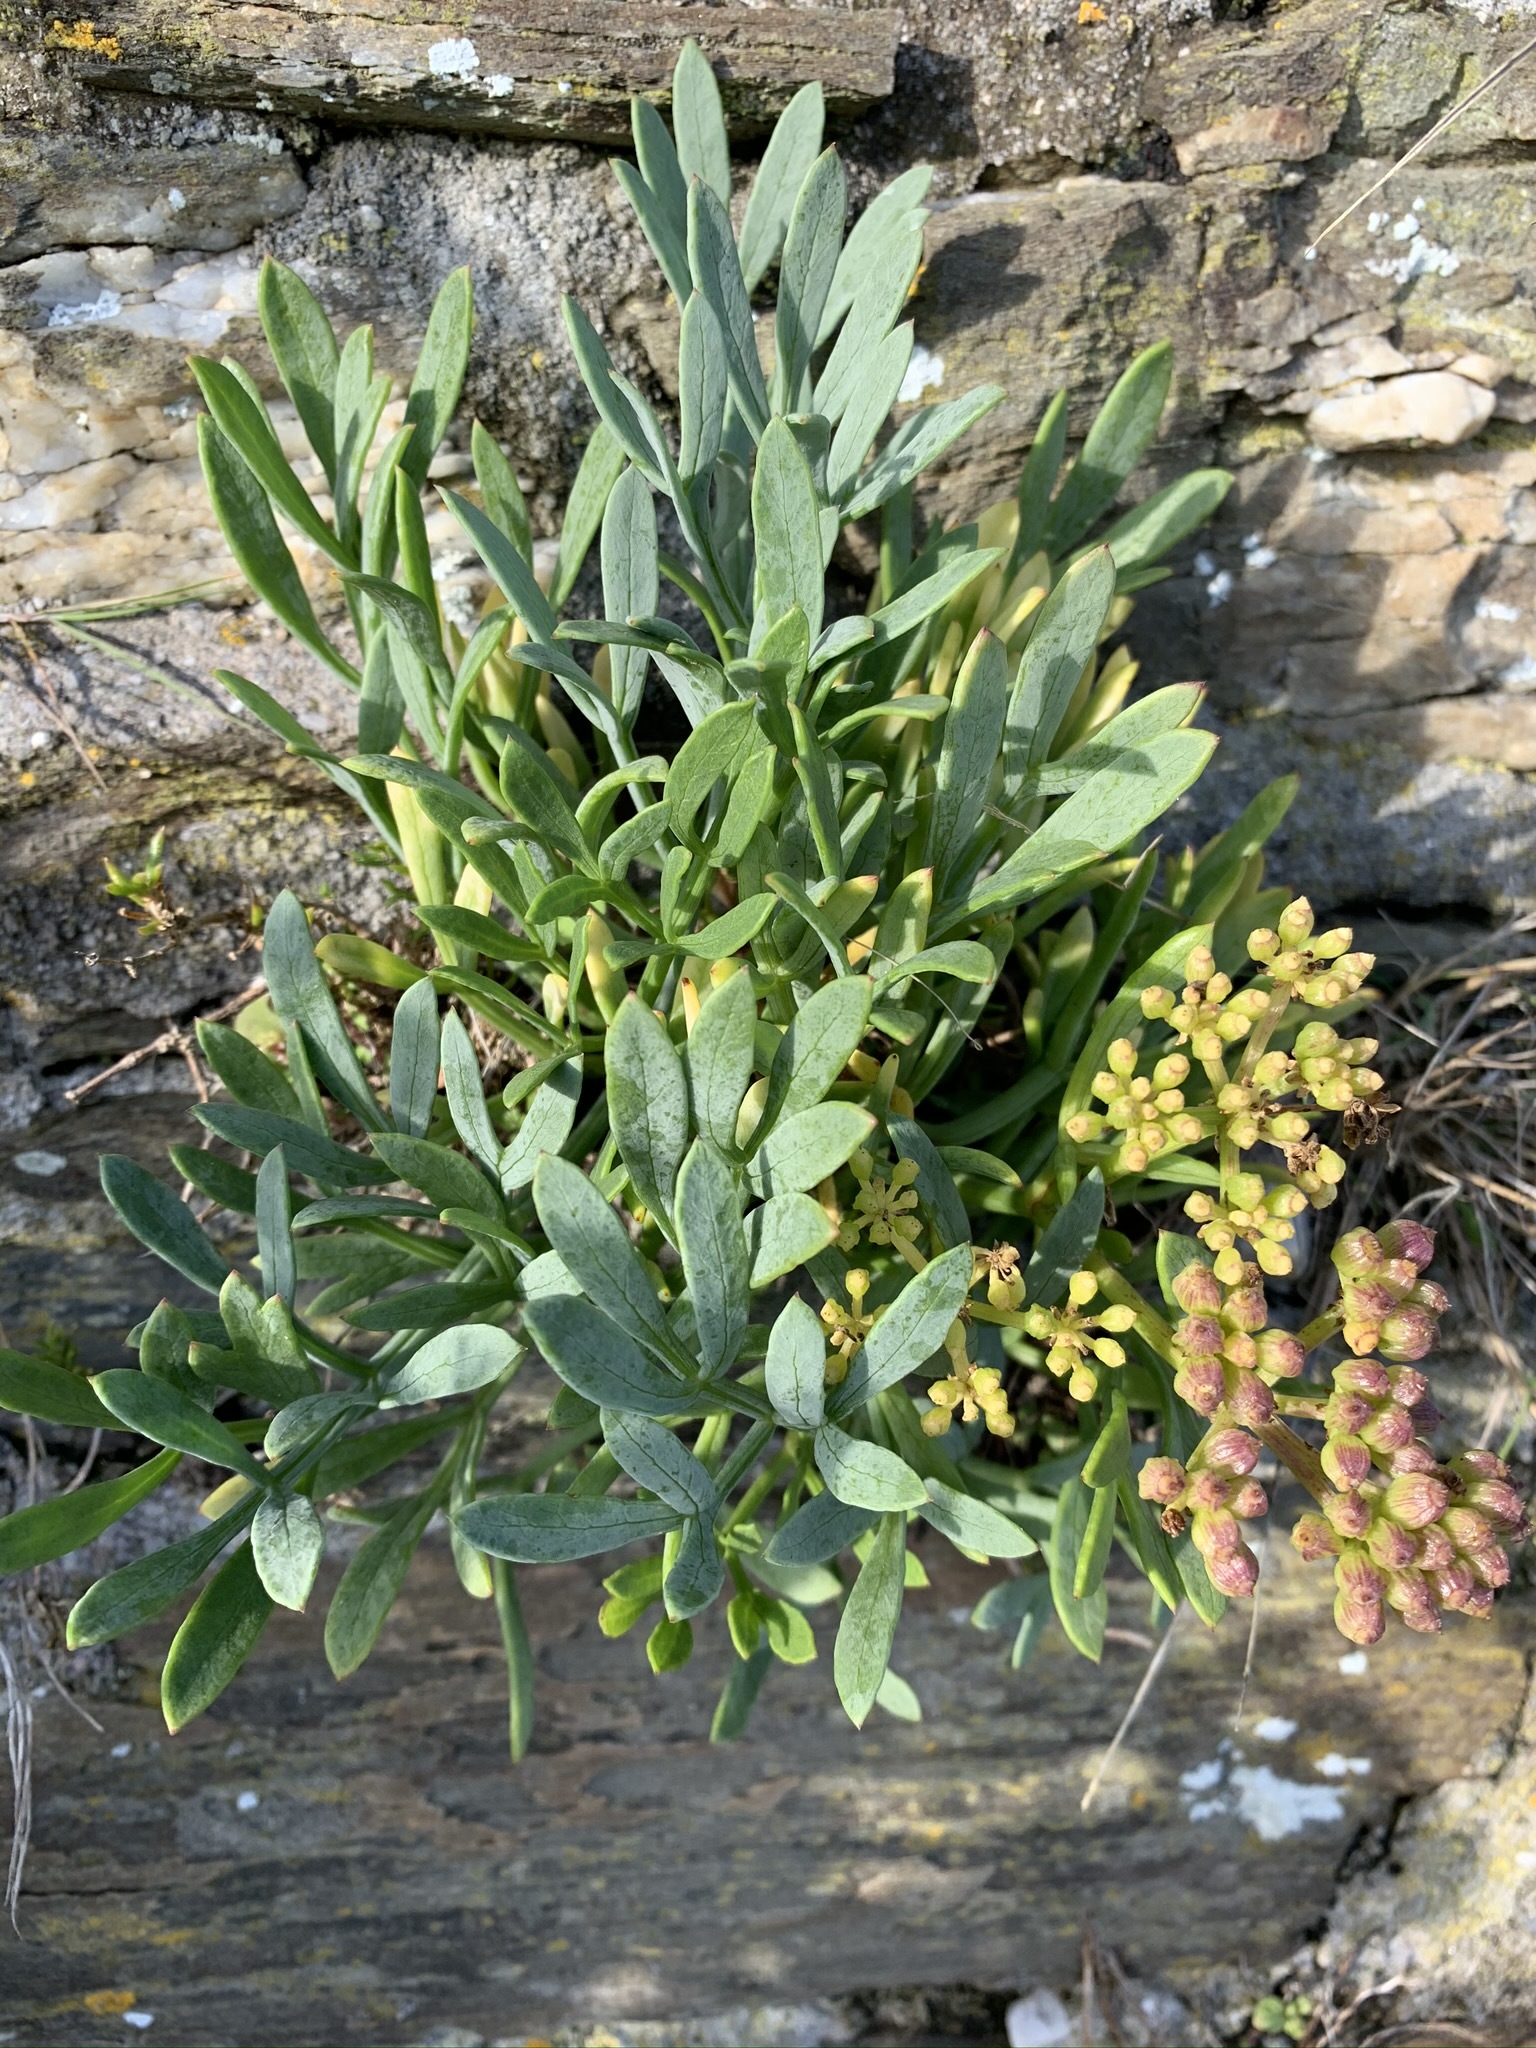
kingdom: Plantae
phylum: Tracheophyta
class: Magnoliopsida
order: Apiales
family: Apiaceae
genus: Crithmum
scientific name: Crithmum maritimum
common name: Rock samphire
